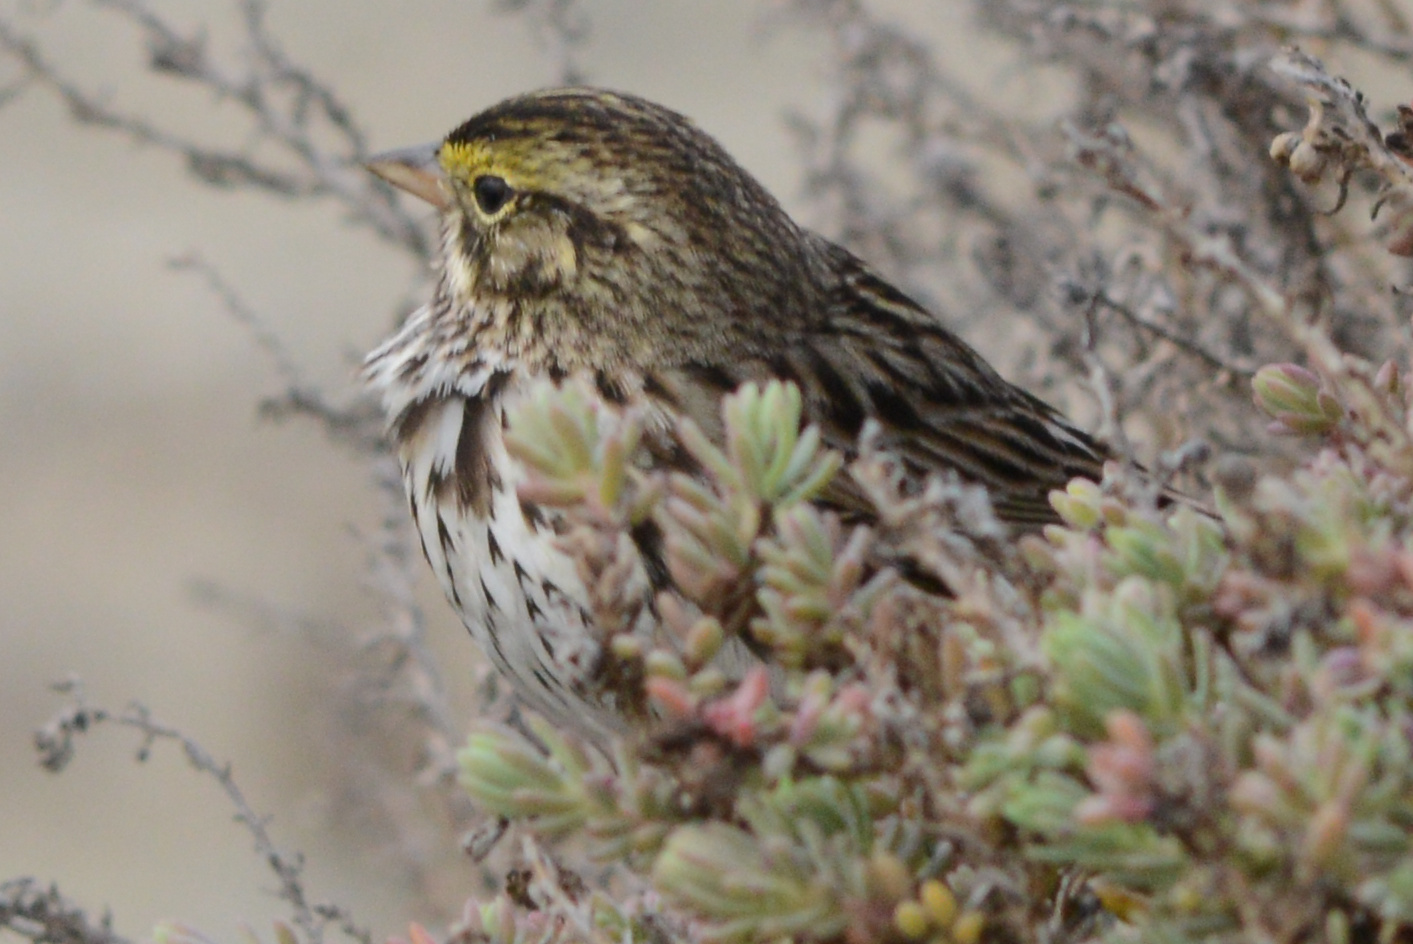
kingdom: Animalia
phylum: Chordata
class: Aves
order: Passeriformes
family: Passerellidae
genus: Passerculus
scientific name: Passerculus sandwichensis
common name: Savannah sparrow
